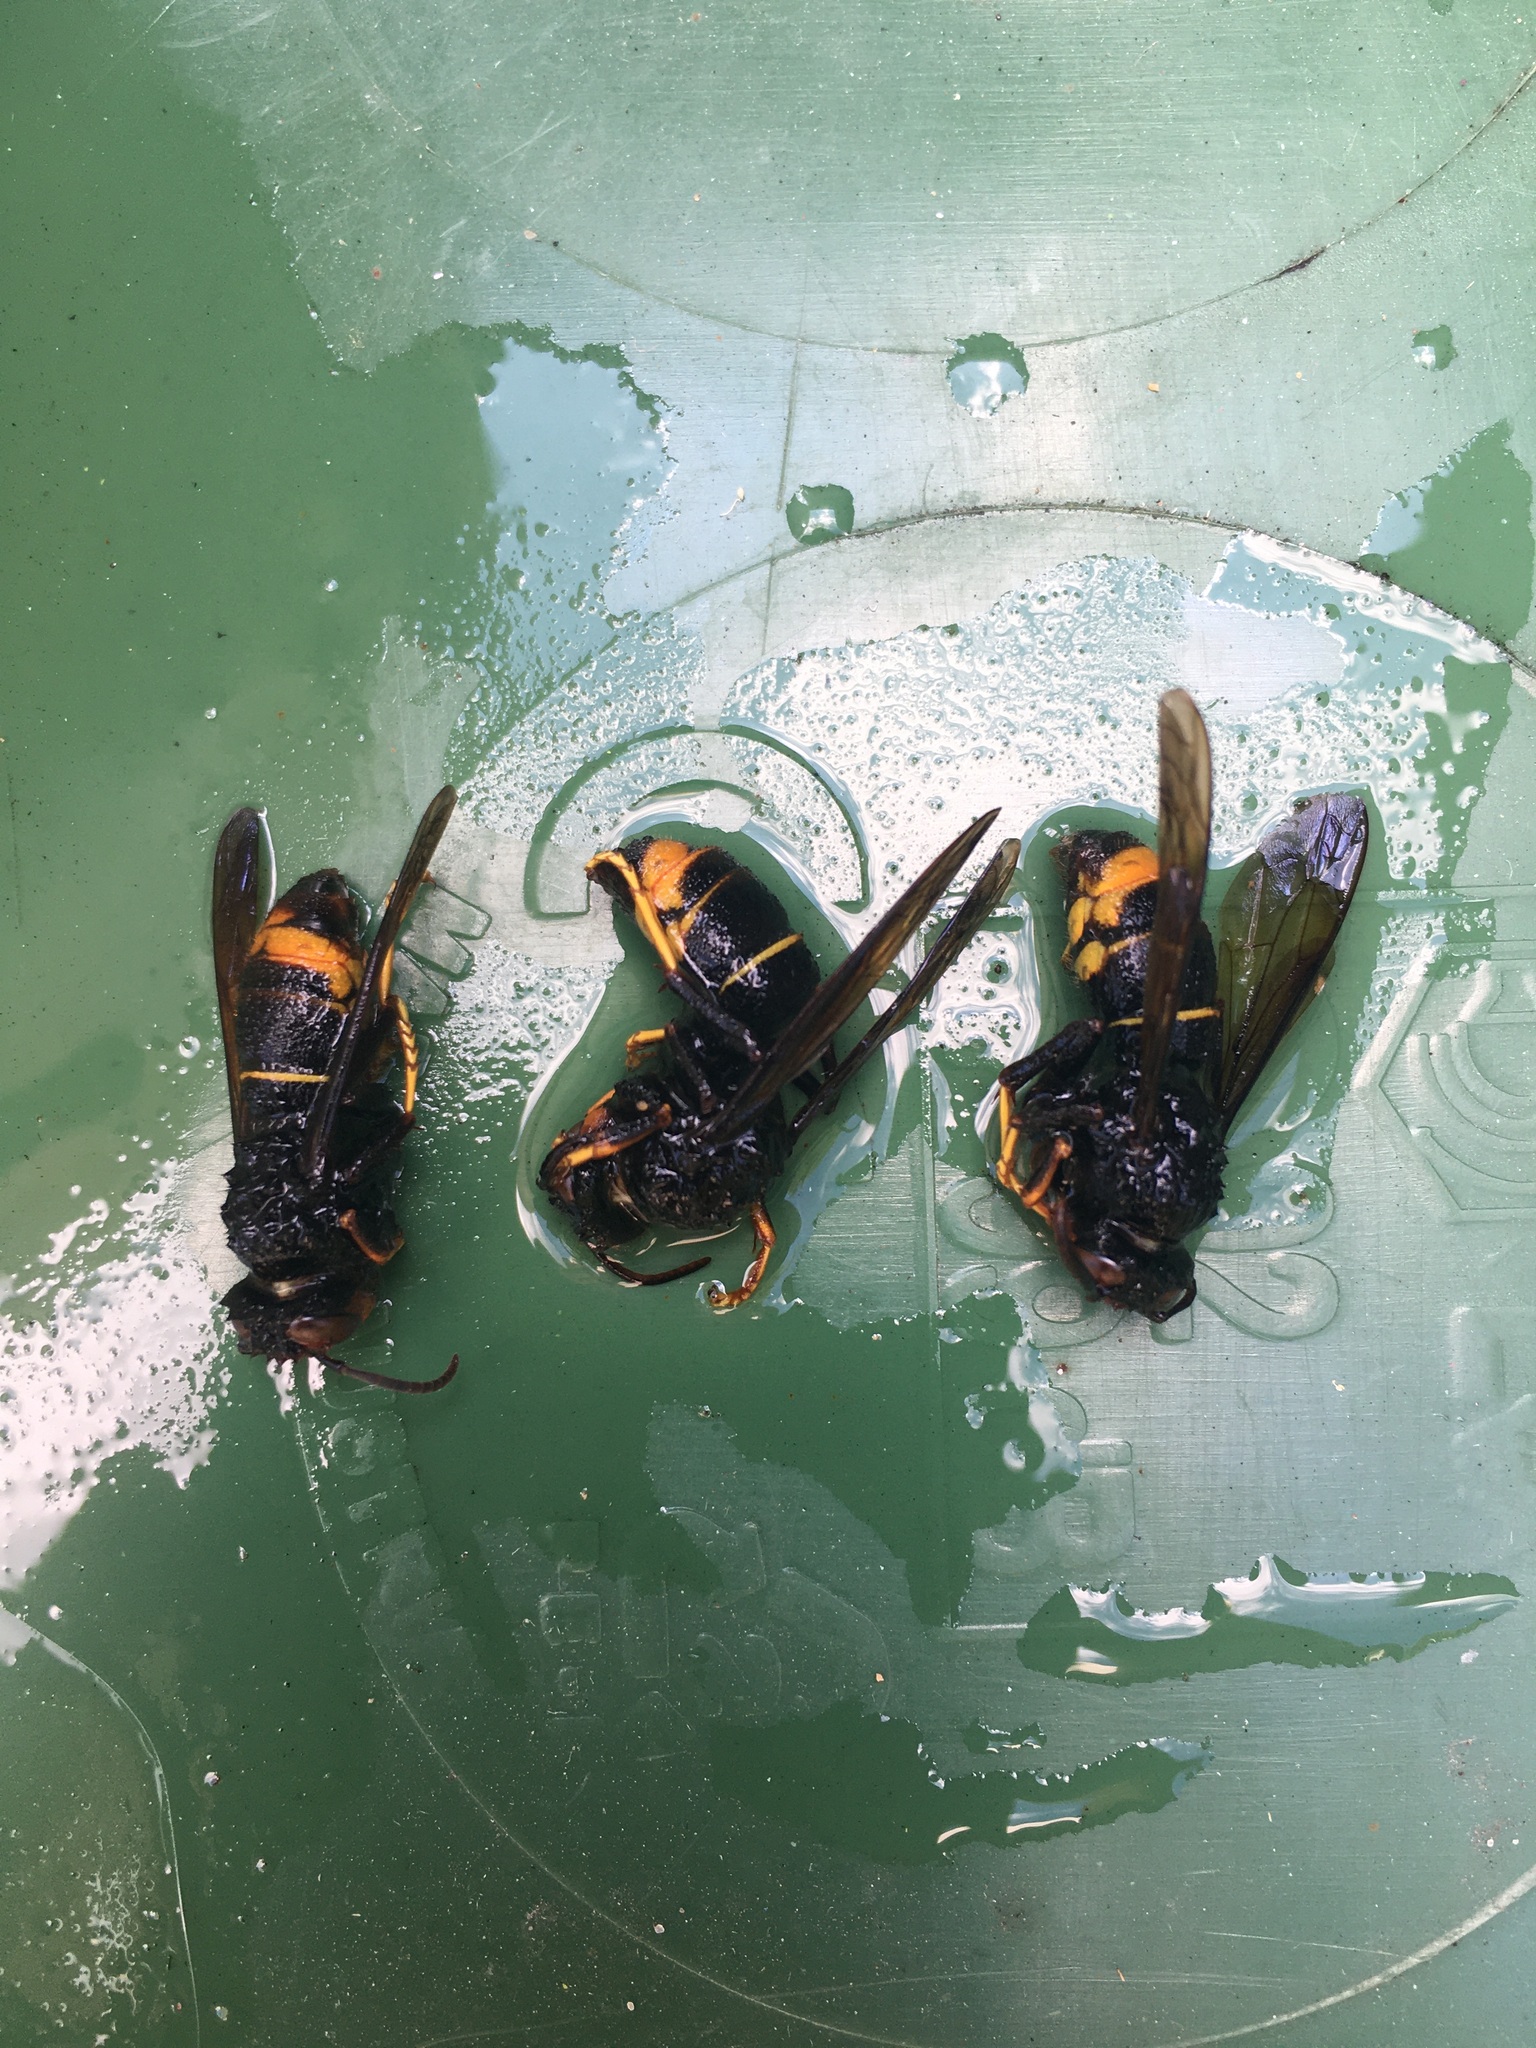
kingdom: Animalia
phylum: Arthropoda
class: Insecta
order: Hymenoptera
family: Vespidae
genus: Vespa
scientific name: Vespa velutina
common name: Asian hornet
